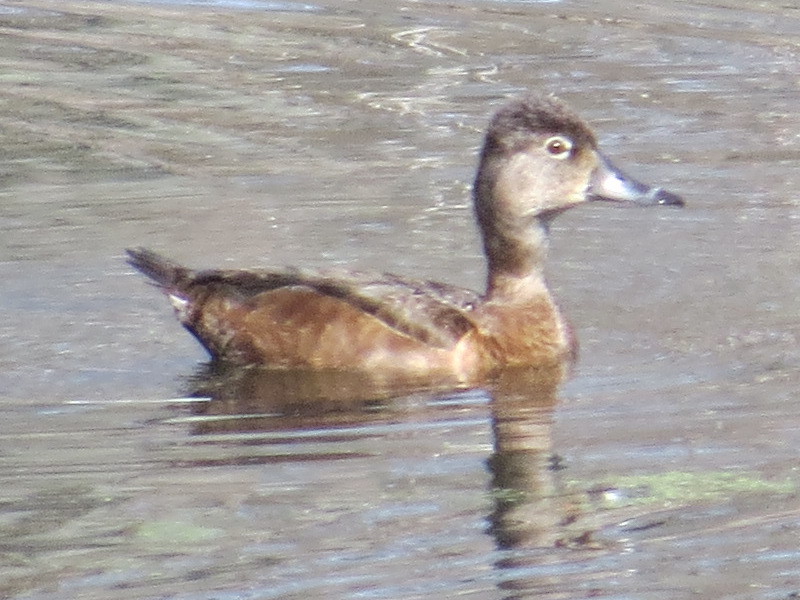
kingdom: Animalia
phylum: Chordata
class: Aves
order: Anseriformes
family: Anatidae
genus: Aythya
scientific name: Aythya collaris
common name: Ring-necked duck
